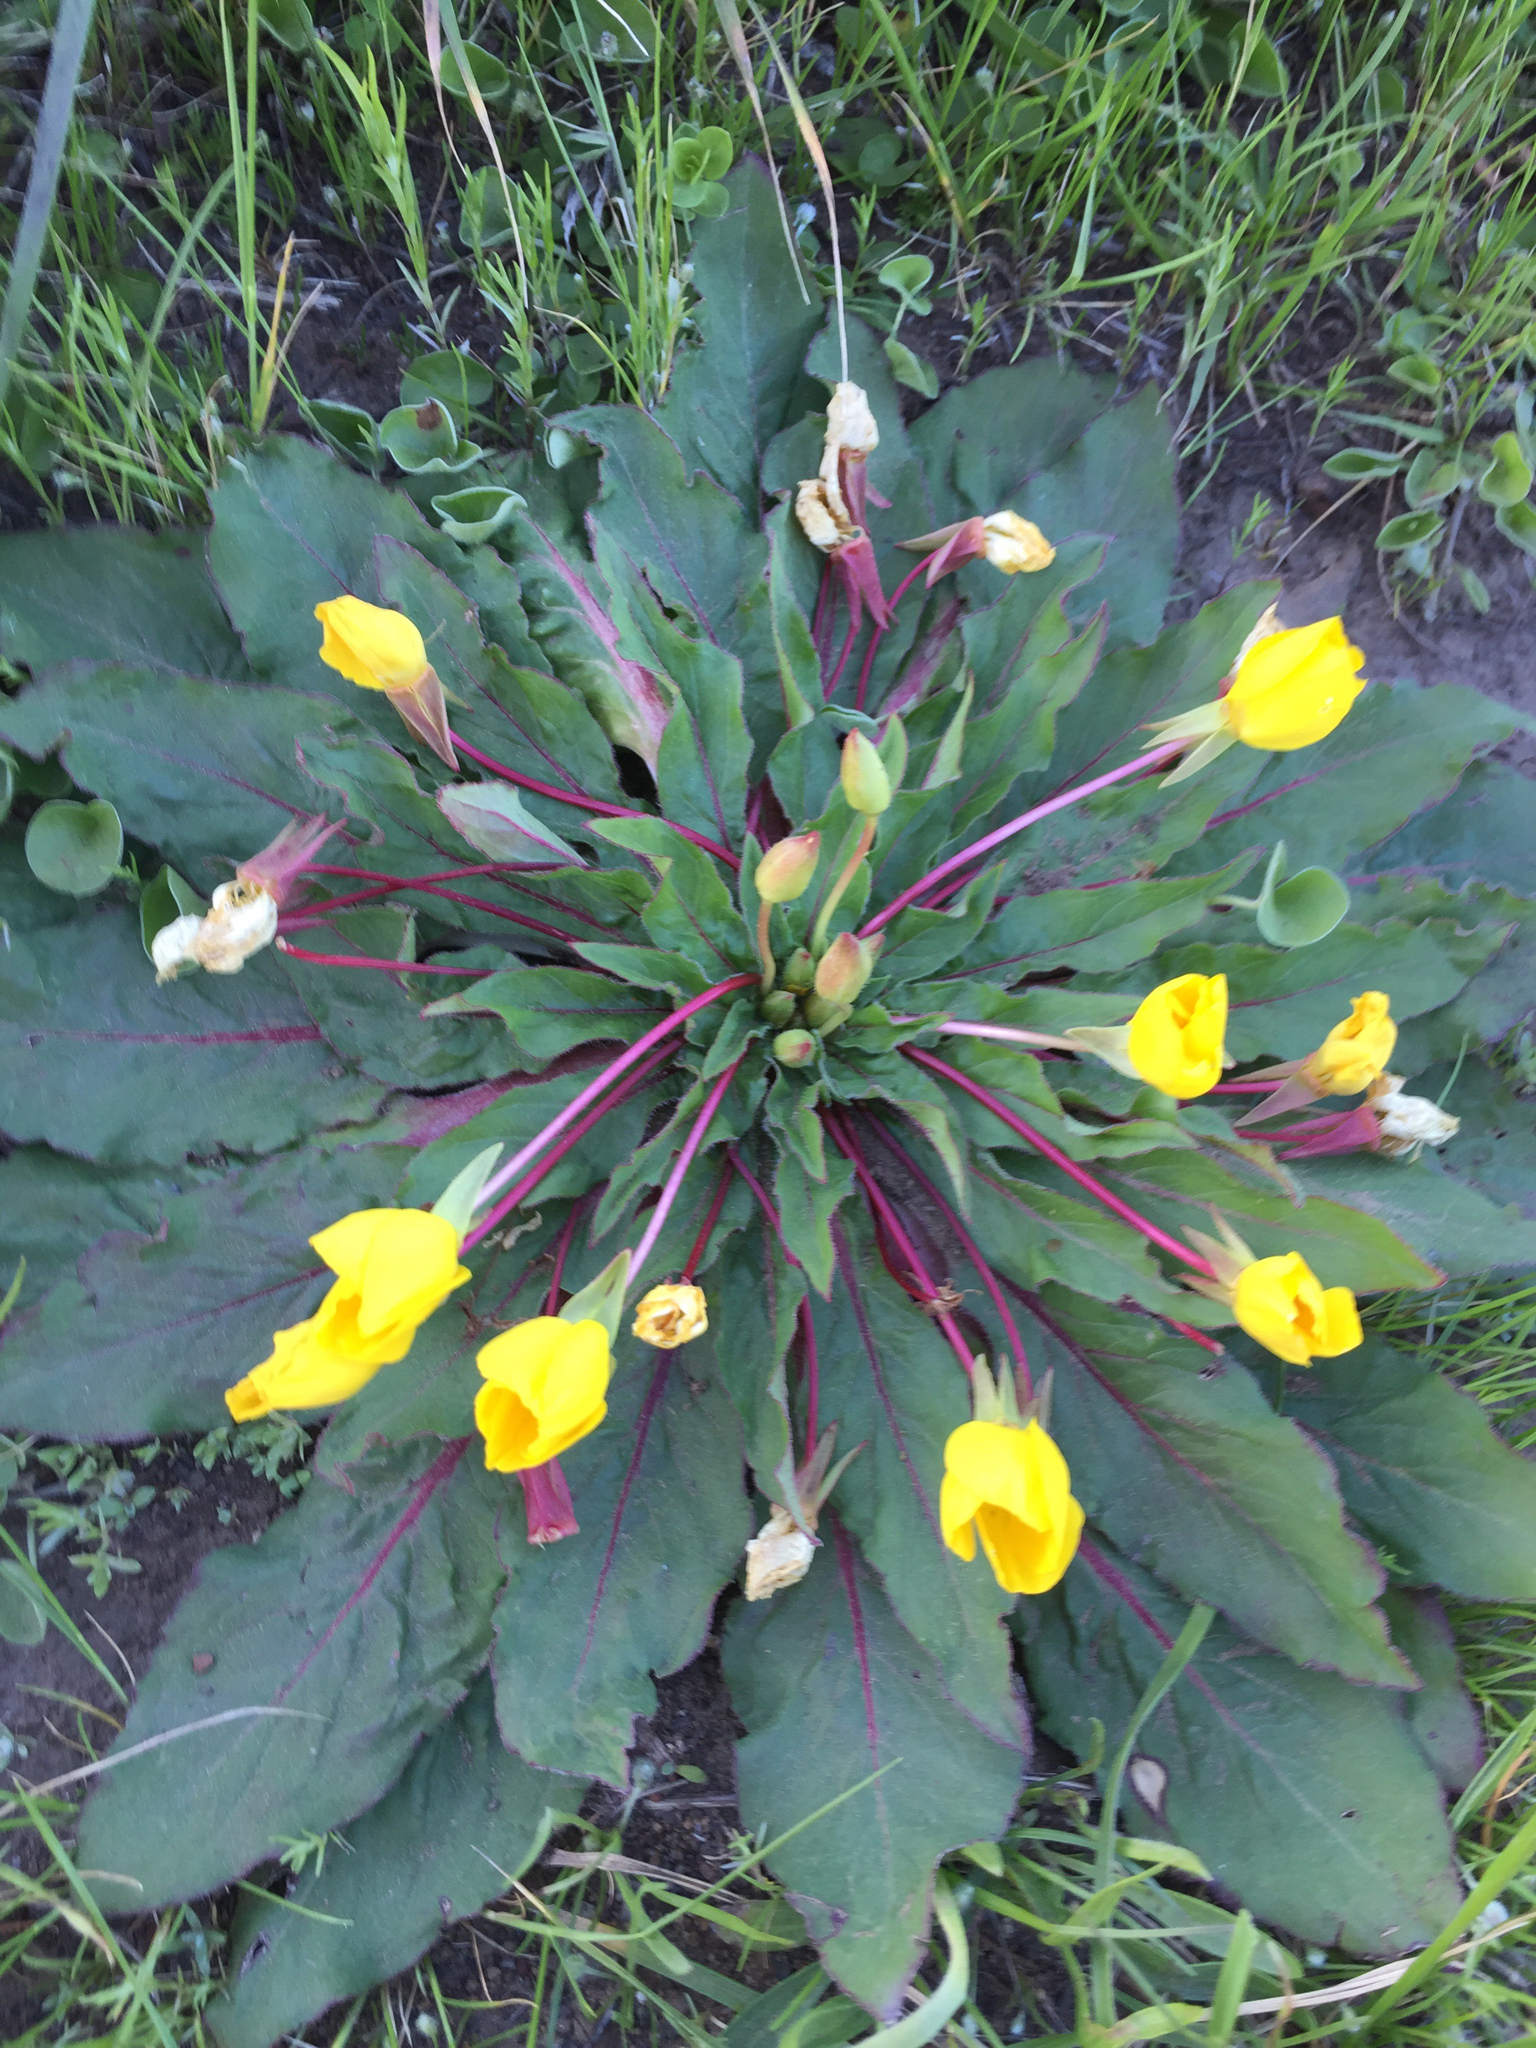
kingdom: Plantae
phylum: Tracheophyta
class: Magnoliopsida
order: Myrtales
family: Onagraceae
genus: Taraxia
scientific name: Taraxia ovata
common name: Goldeneggs
